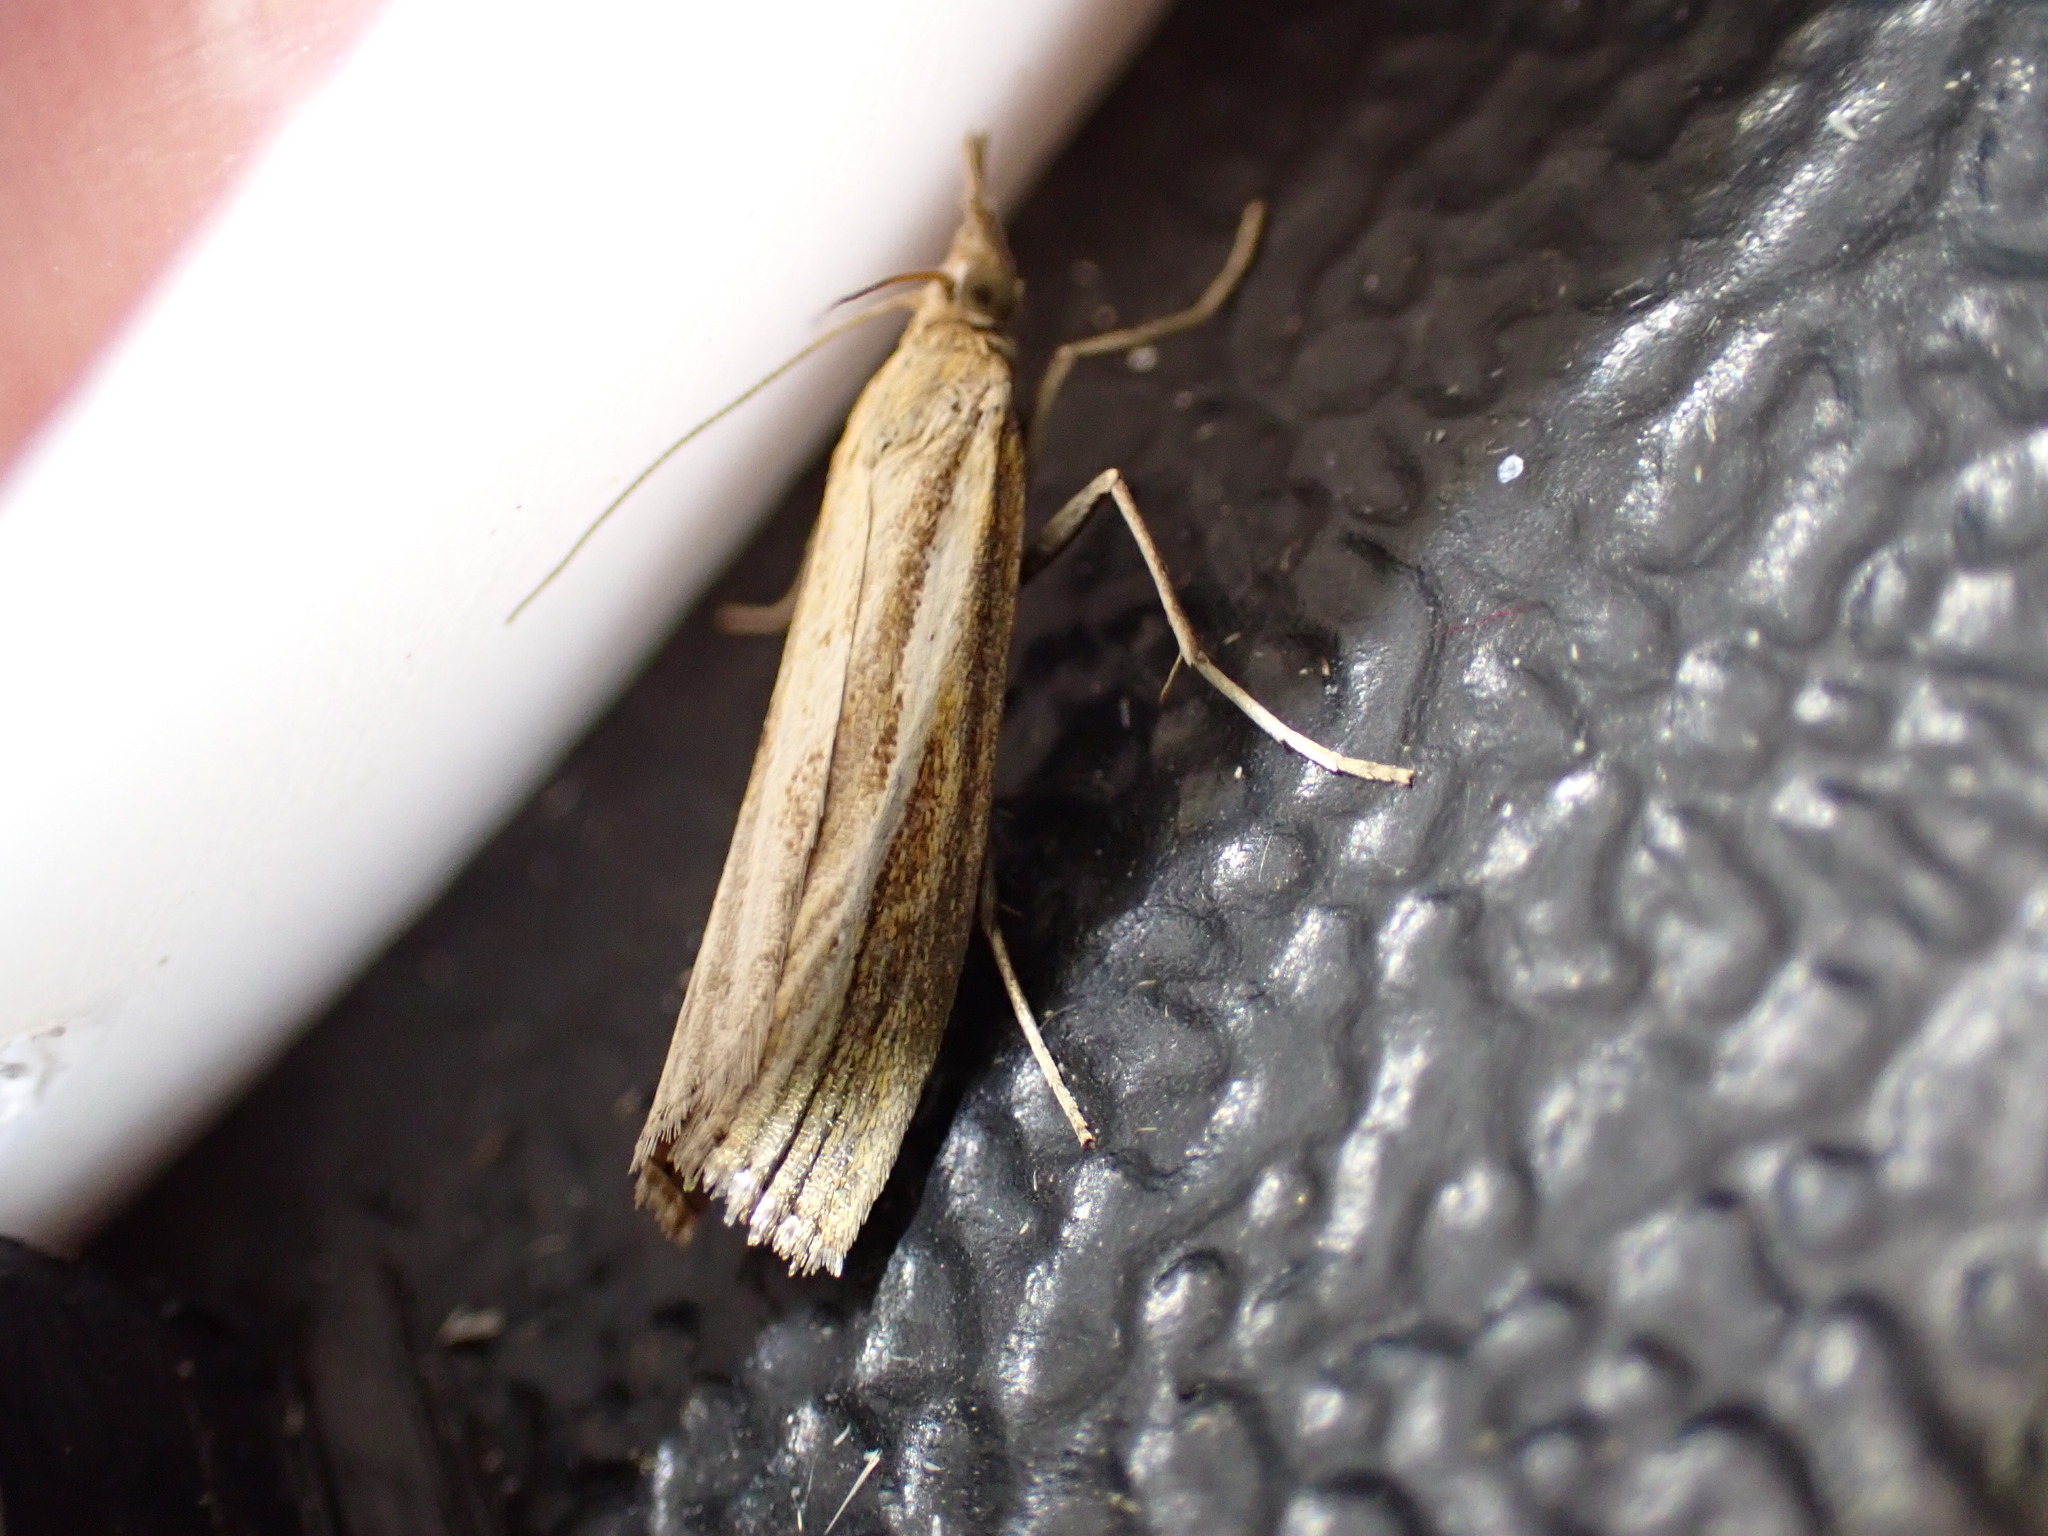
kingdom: Animalia
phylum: Arthropoda
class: Insecta
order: Lepidoptera
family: Crambidae
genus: Agriphila
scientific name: Agriphila tristellus
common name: Common grass-veneer
